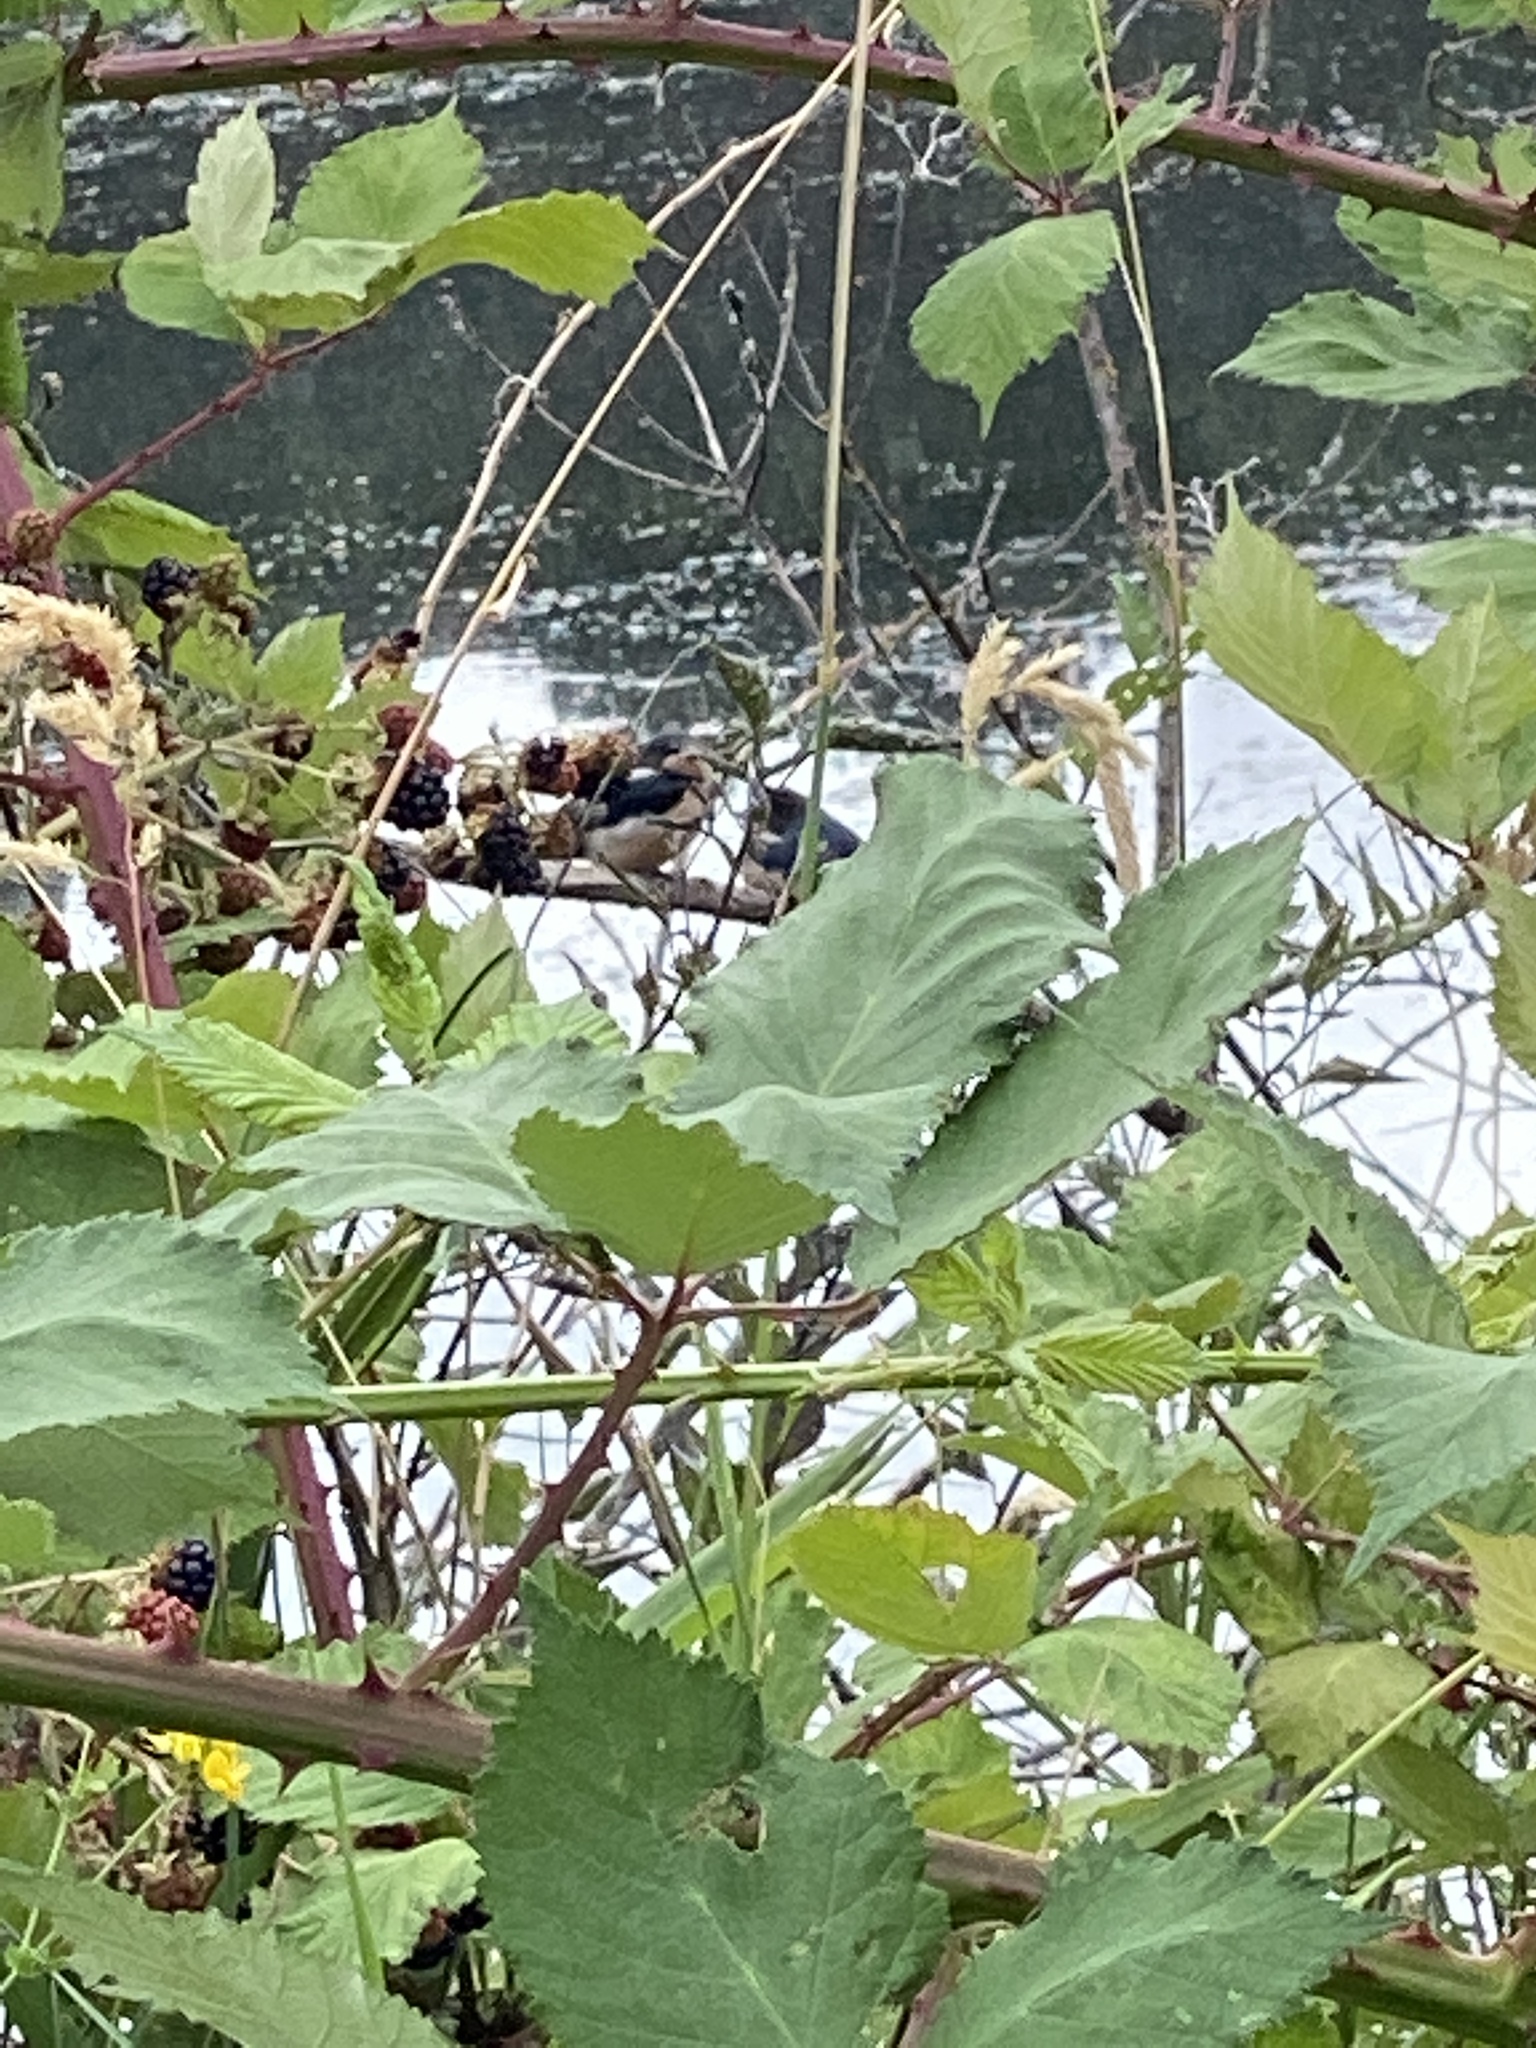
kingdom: Animalia
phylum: Chordata
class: Aves
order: Passeriformes
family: Hirundinidae
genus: Hirundo
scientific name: Hirundo rustica
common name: Barn swallow
